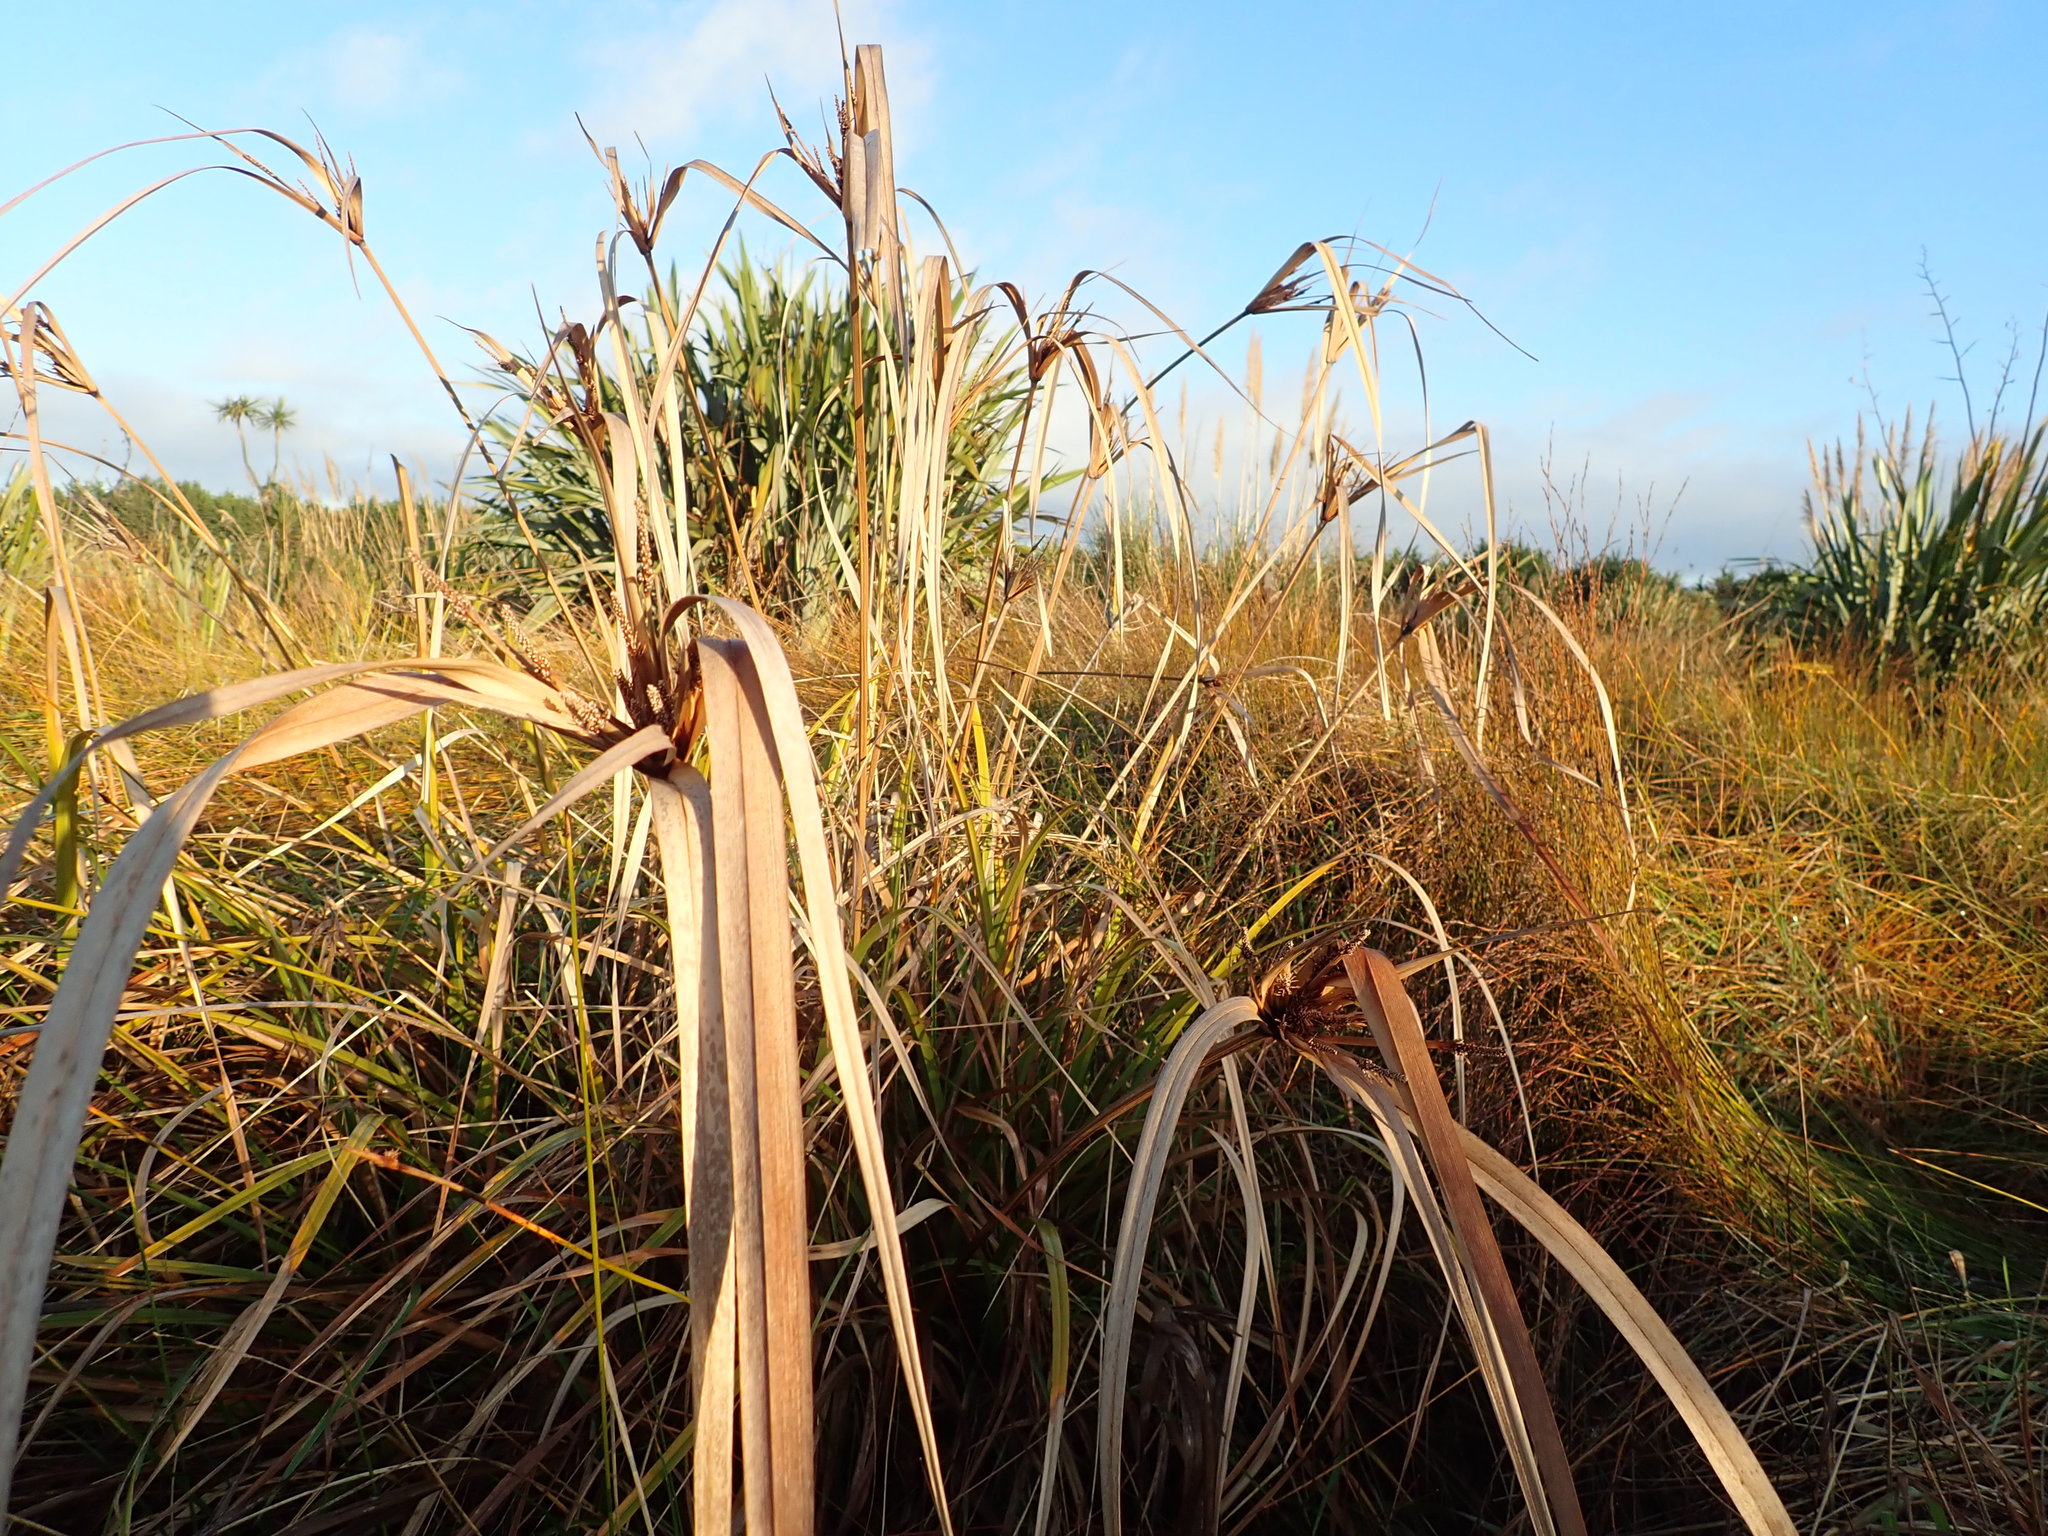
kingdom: Plantae
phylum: Tracheophyta
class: Liliopsida
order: Poales
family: Cyperaceae
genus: Cyperus
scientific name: Cyperus ustulatus
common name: Giant umbrella-sedge
